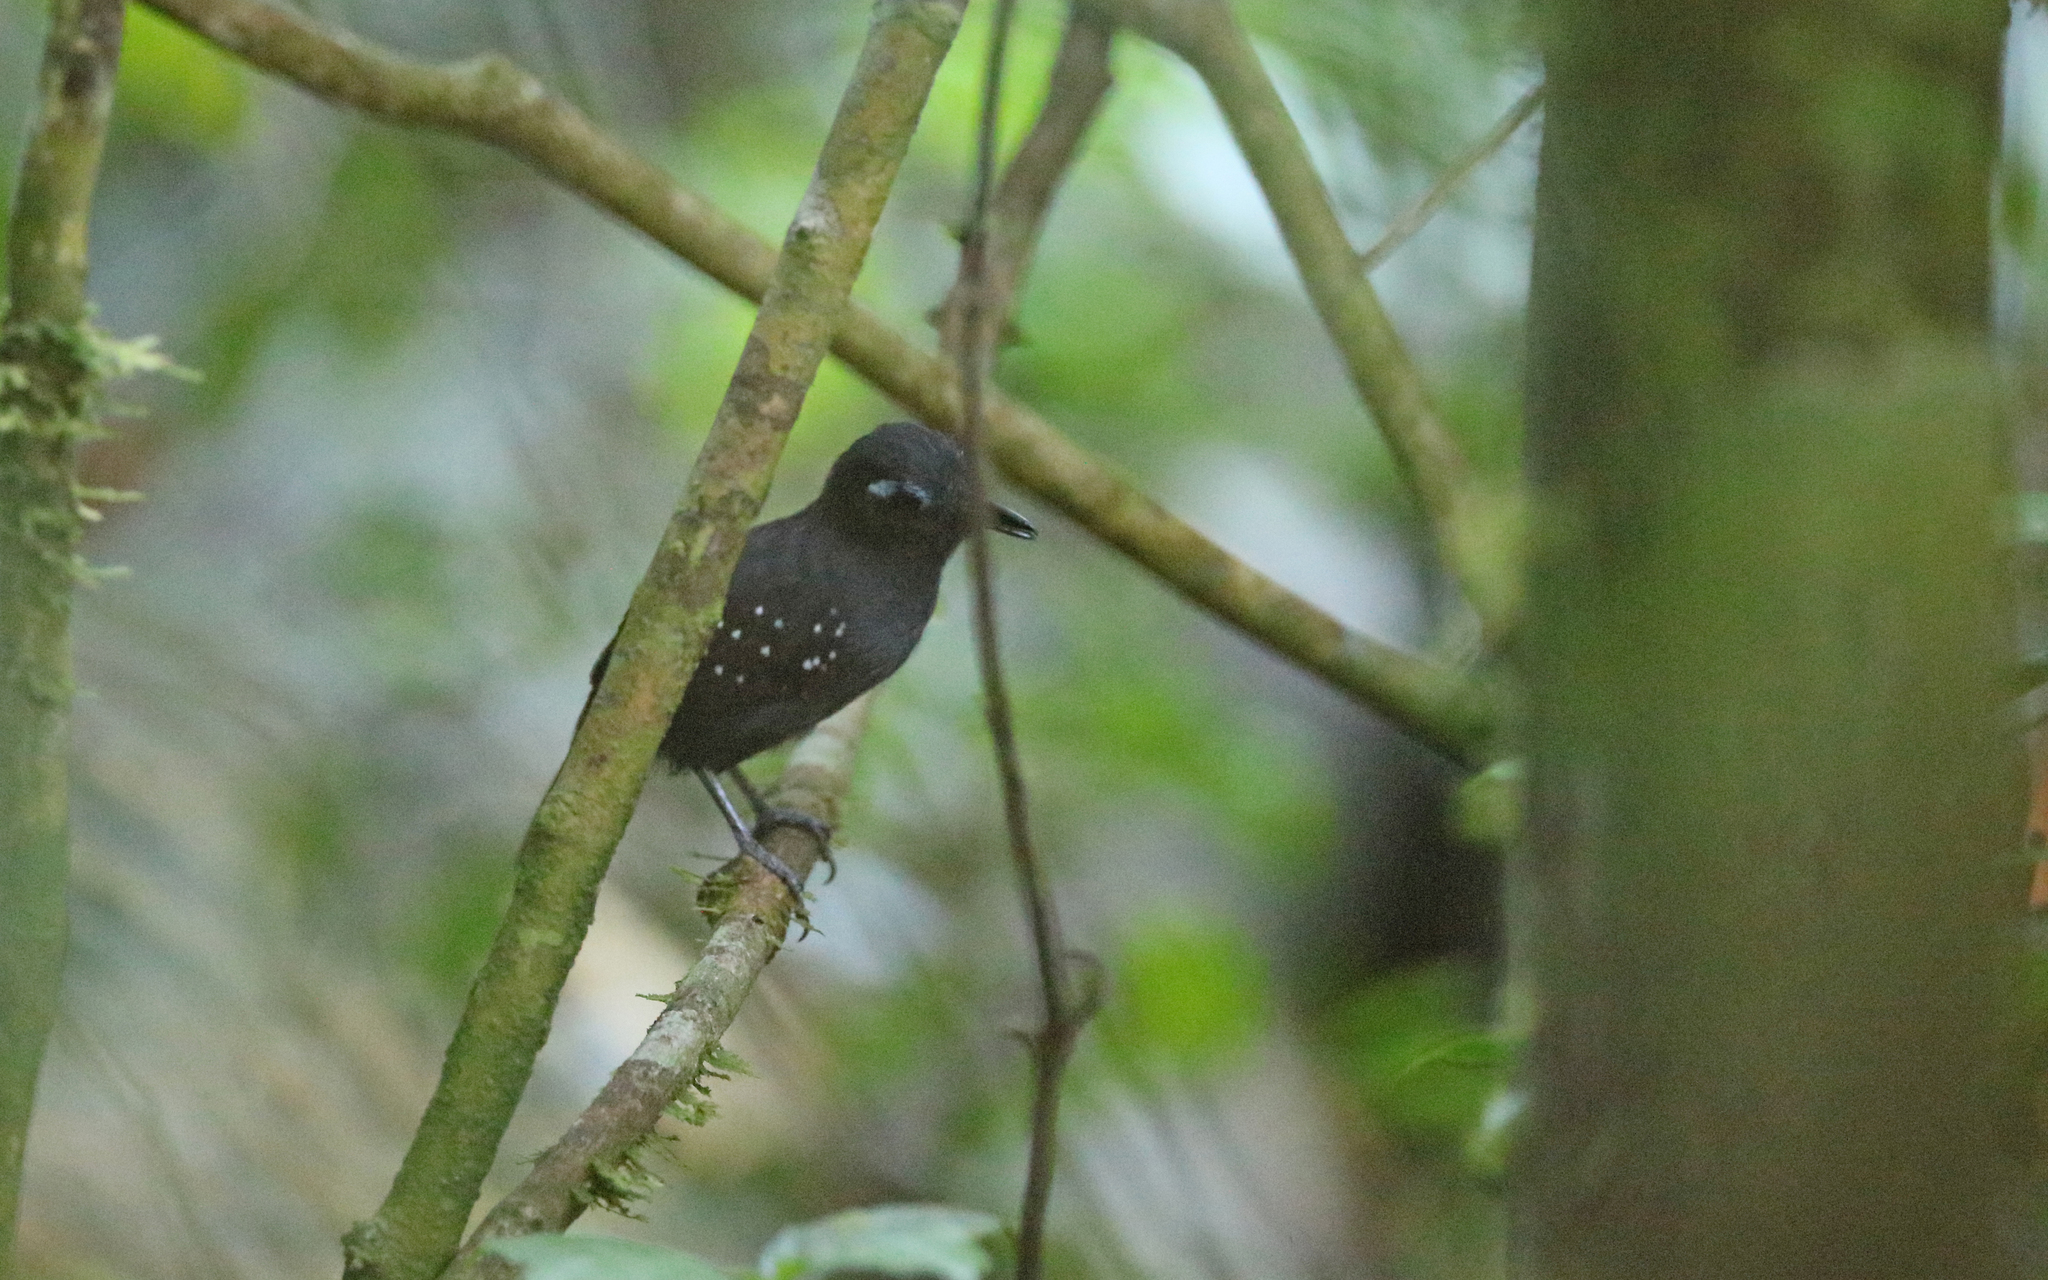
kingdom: Animalia
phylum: Chordata
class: Aves
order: Passeriformes
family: Thamnophilidae
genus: Myrmeciza
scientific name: Myrmeciza hyperythra
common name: Plumbeous antbird
